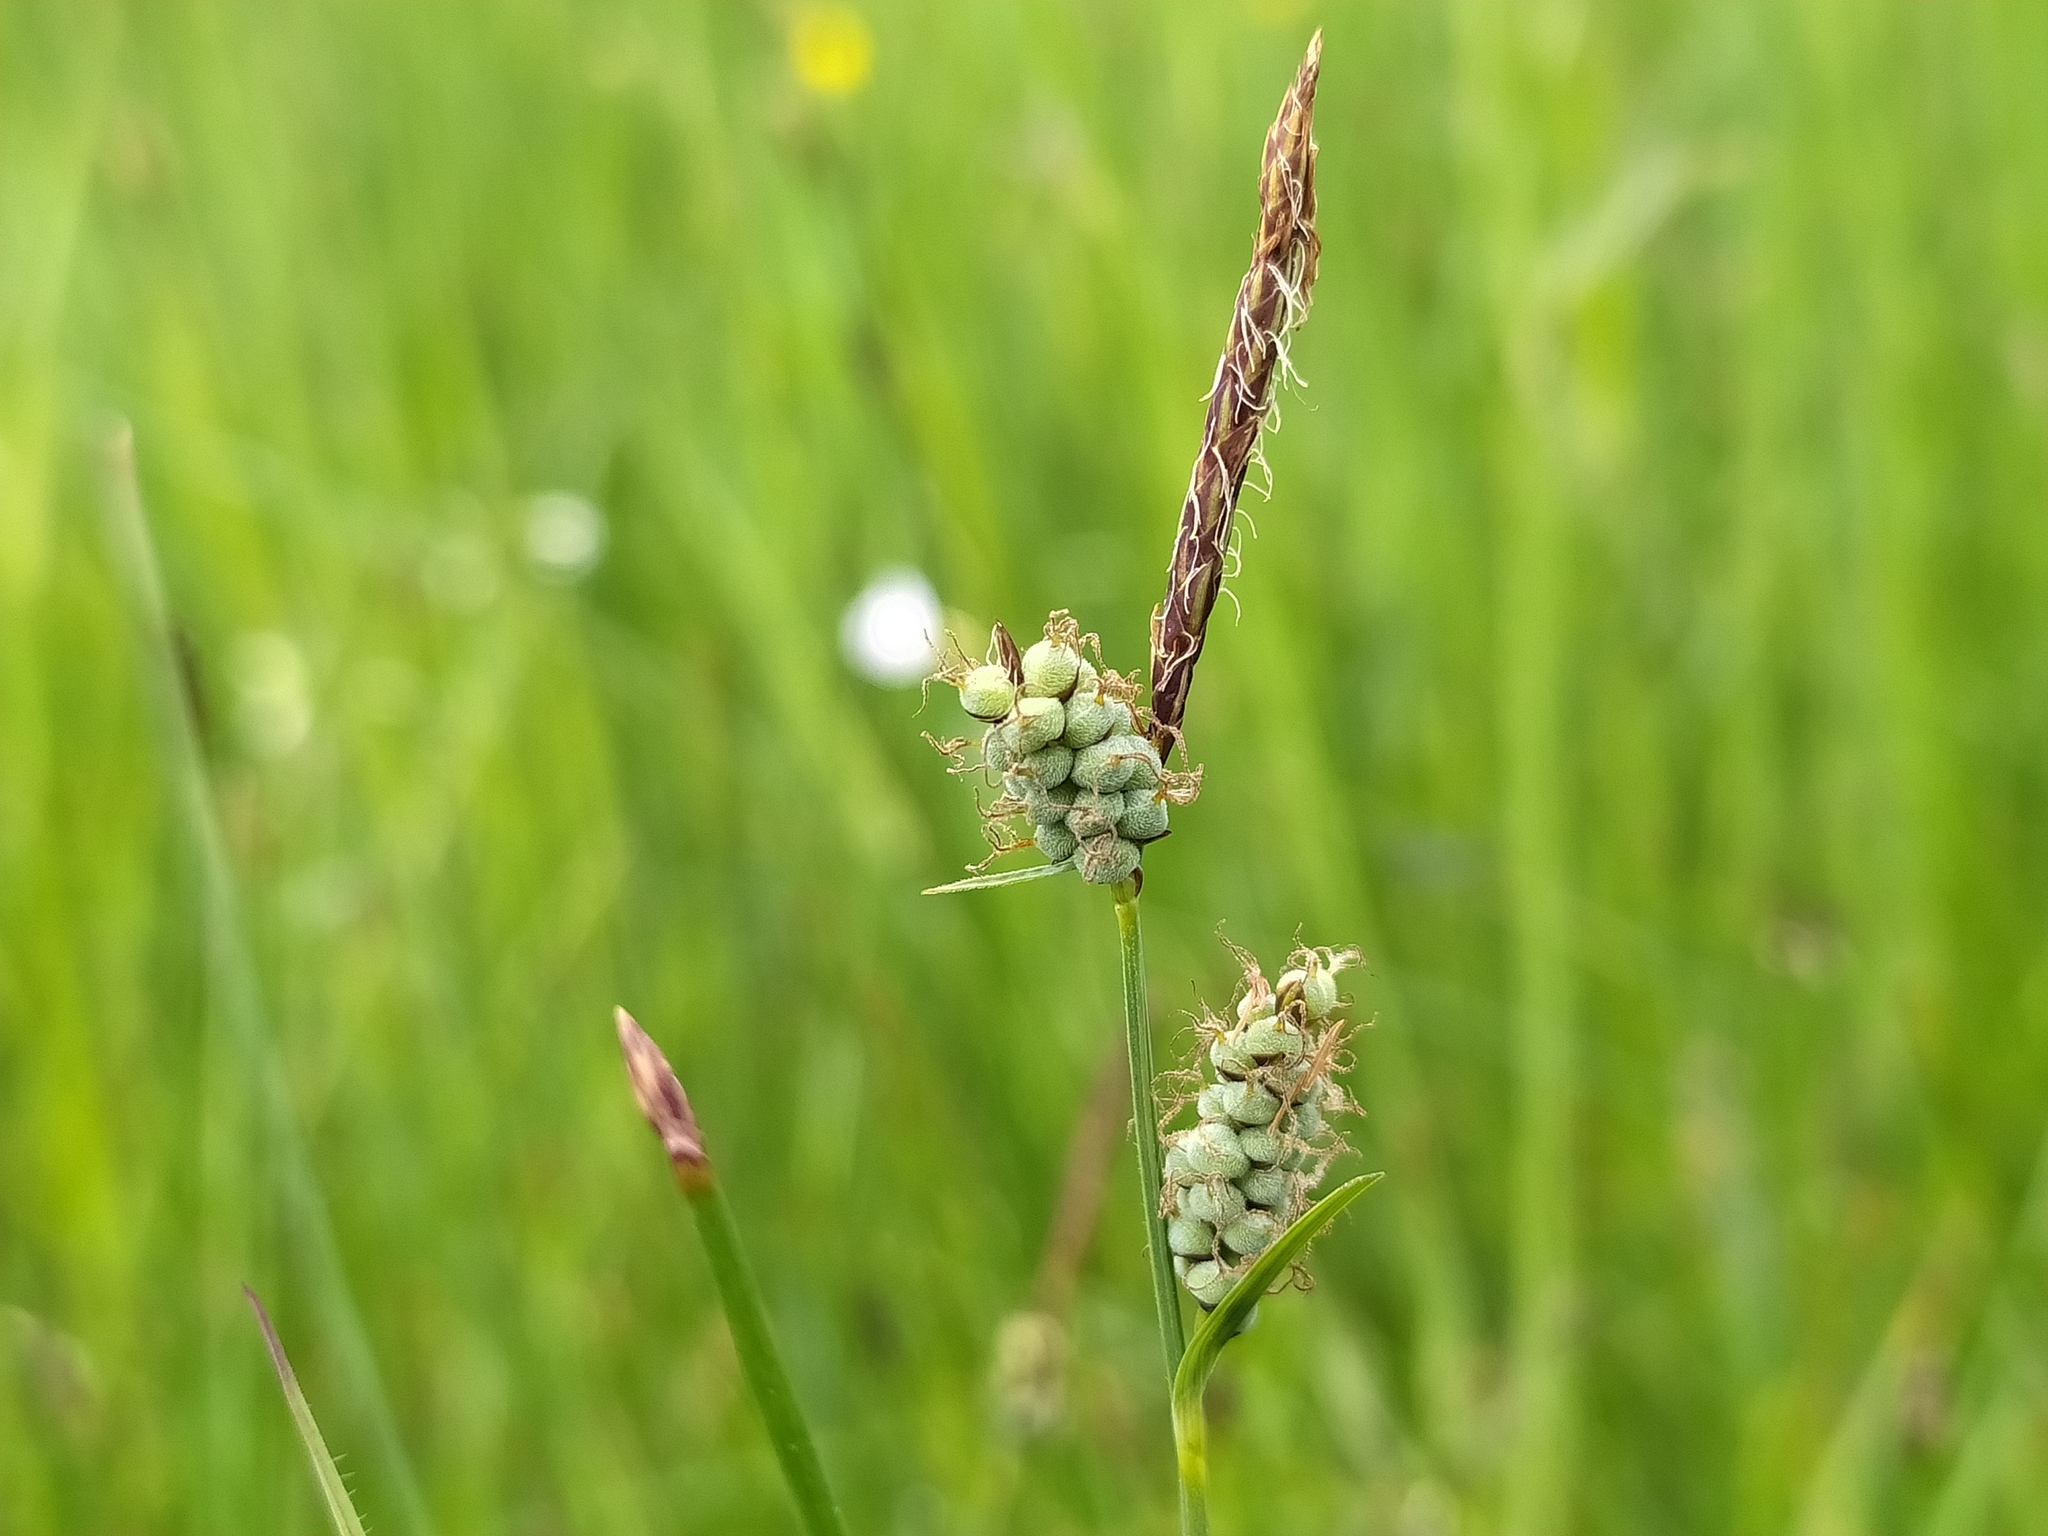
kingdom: Plantae
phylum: Tracheophyta
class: Liliopsida
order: Poales
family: Cyperaceae
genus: Carex
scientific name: Carex tomentosa
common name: Downy-fruited sedge
